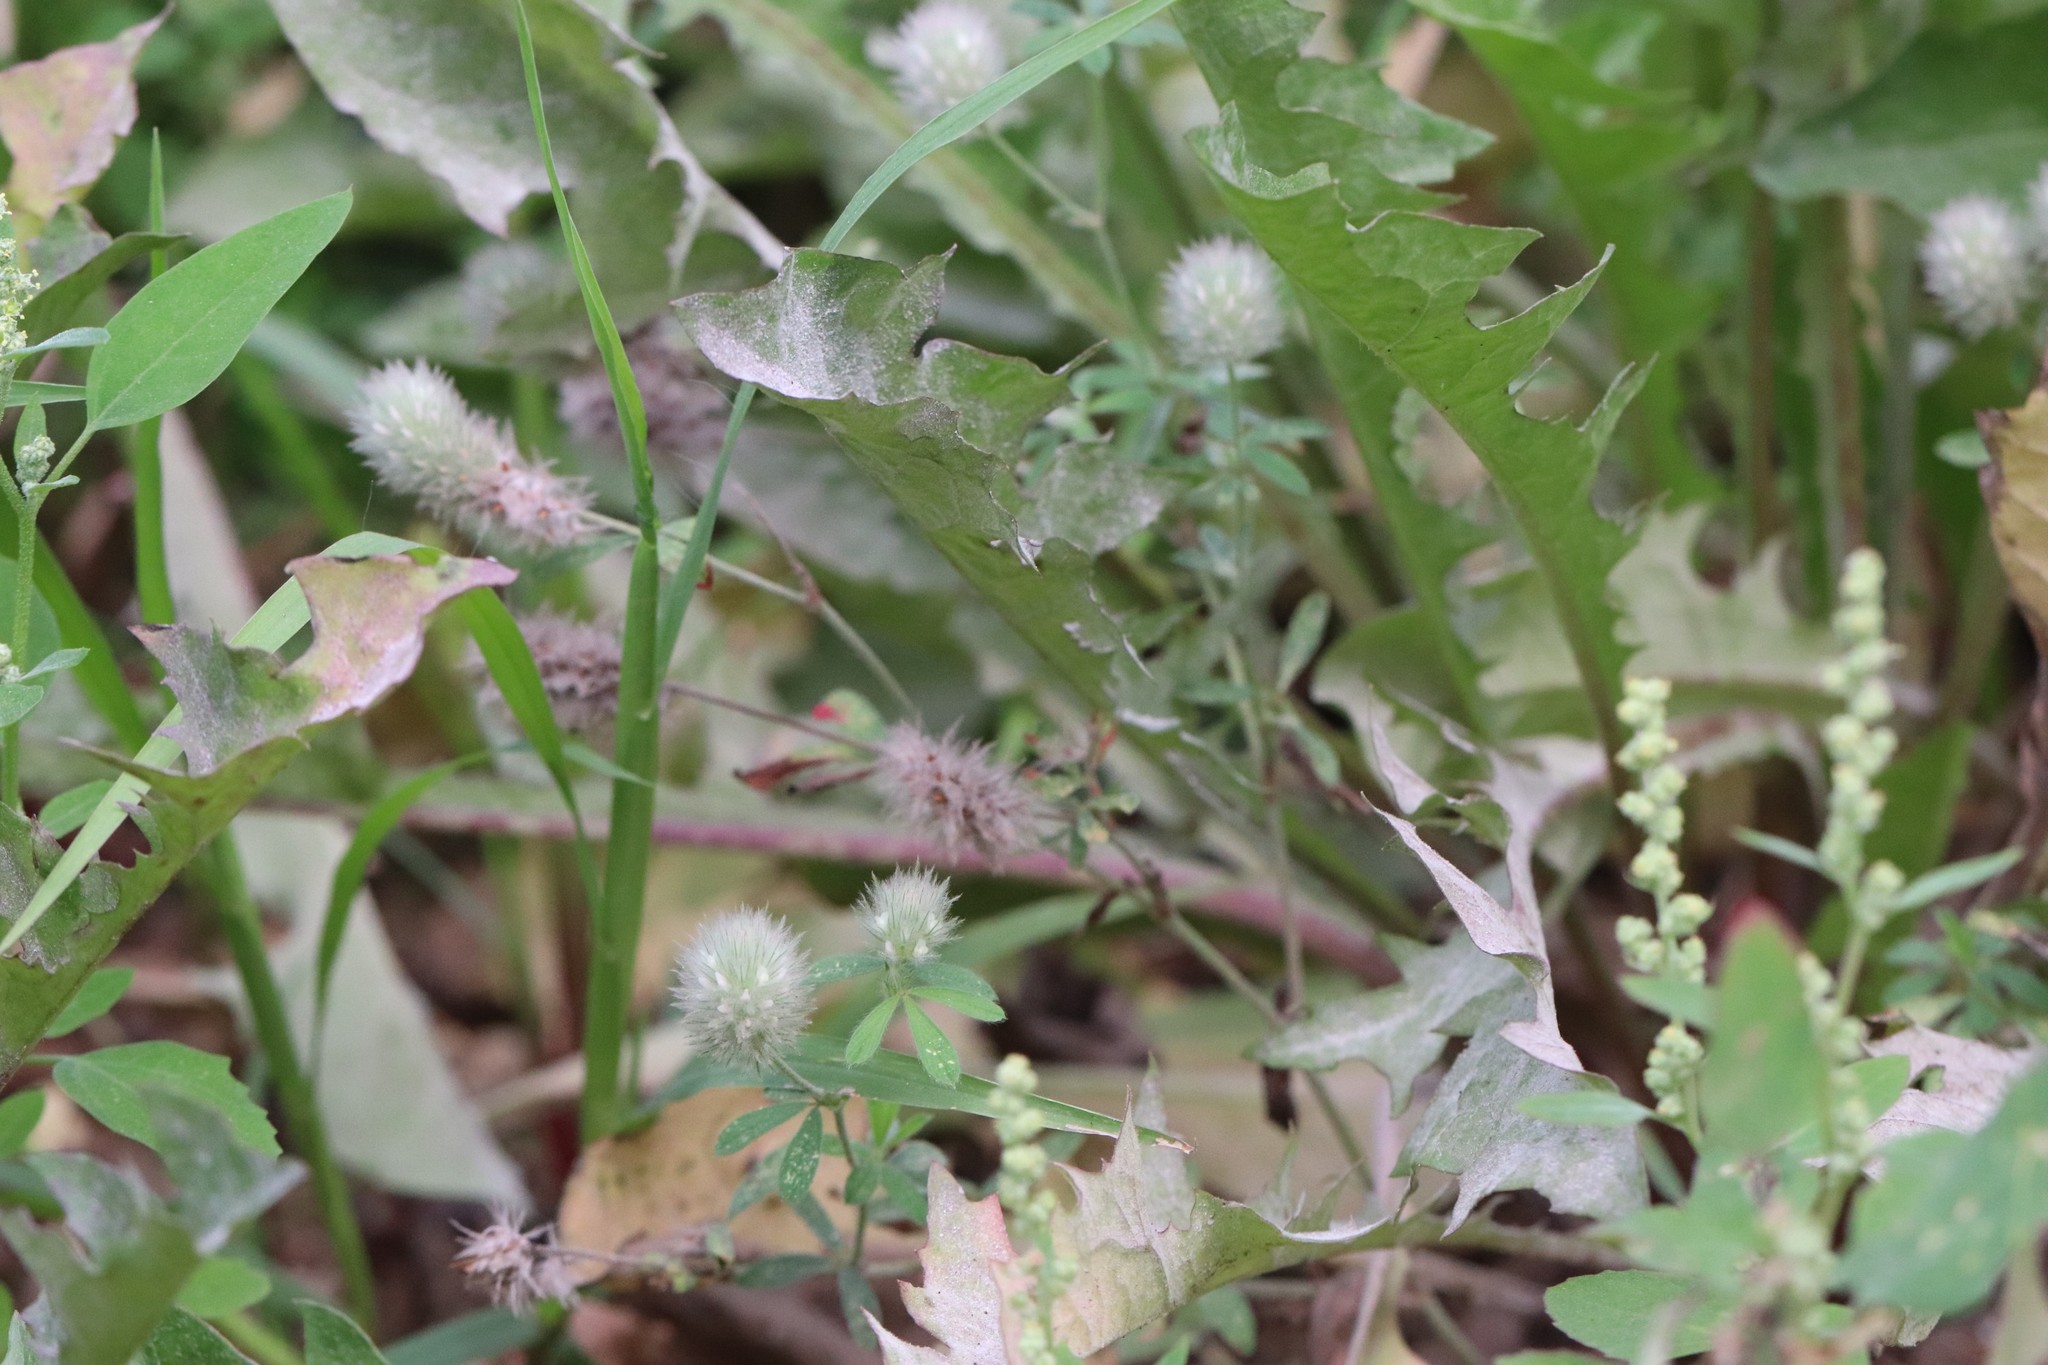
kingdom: Plantae
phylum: Tracheophyta
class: Magnoliopsida
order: Fabales
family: Fabaceae
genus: Trifolium
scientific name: Trifolium arvense
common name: Hare's-foot clover
